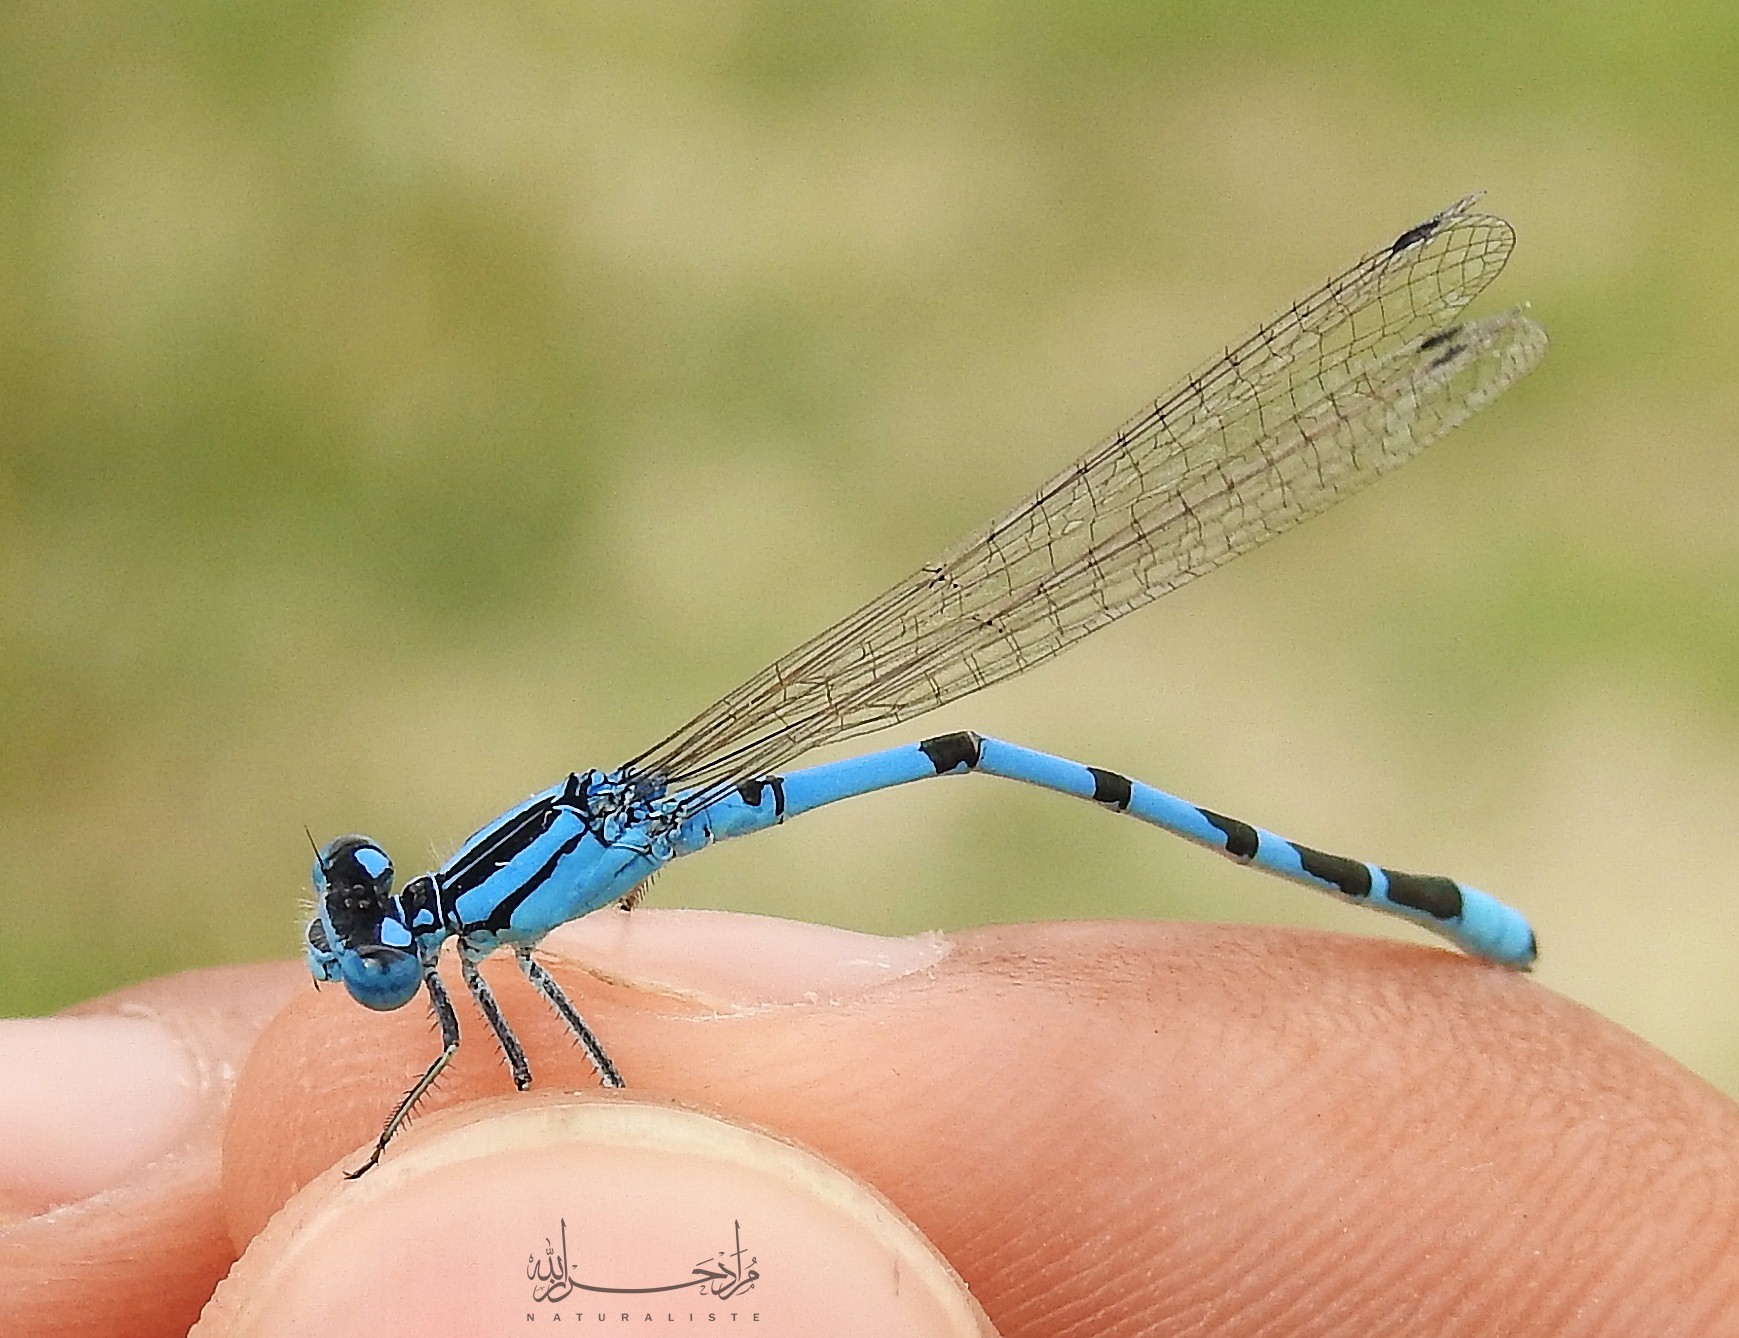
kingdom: Animalia
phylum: Arthropoda
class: Insecta
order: Odonata
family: Coenagrionidae
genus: Enallagma
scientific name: Enallagma cyathigerum
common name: Common blue damselfly
